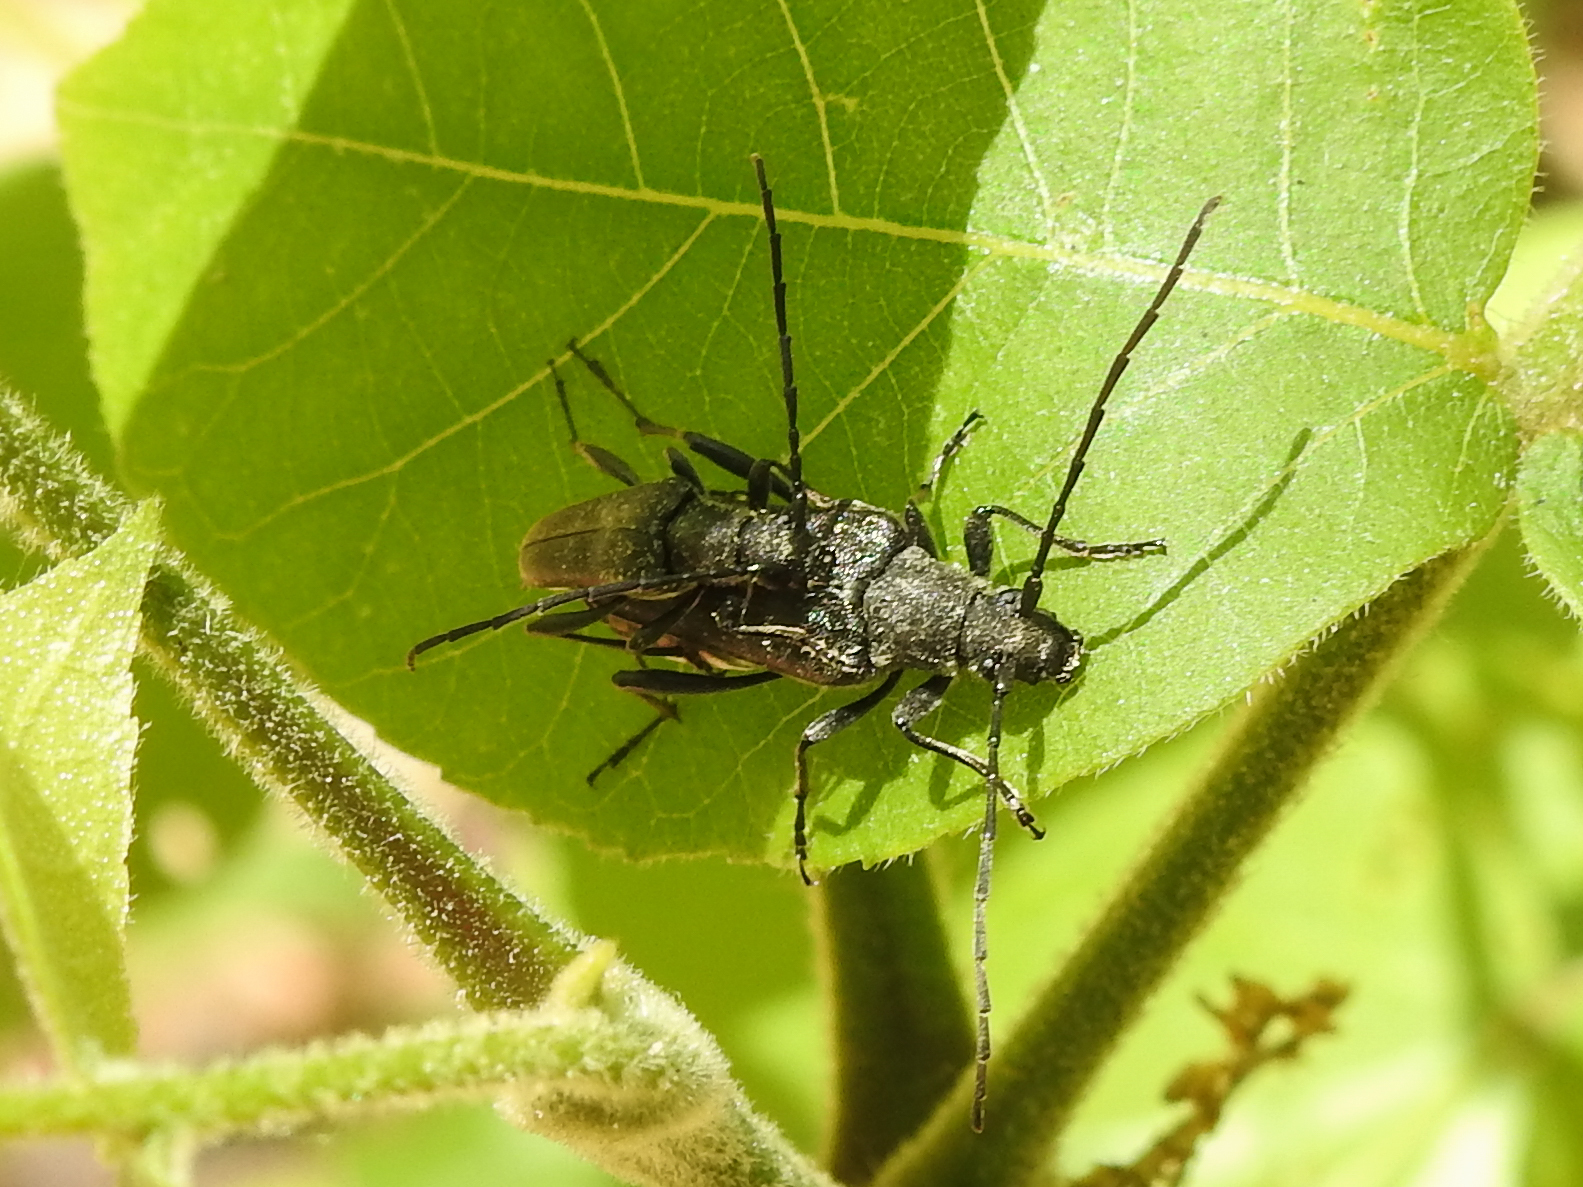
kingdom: Animalia
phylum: Arthropoda
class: Insecta
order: Coleoptera
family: Cerambycidae
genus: Trachysida
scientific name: Trachysida mutabilis
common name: Changeable flower longhorn
